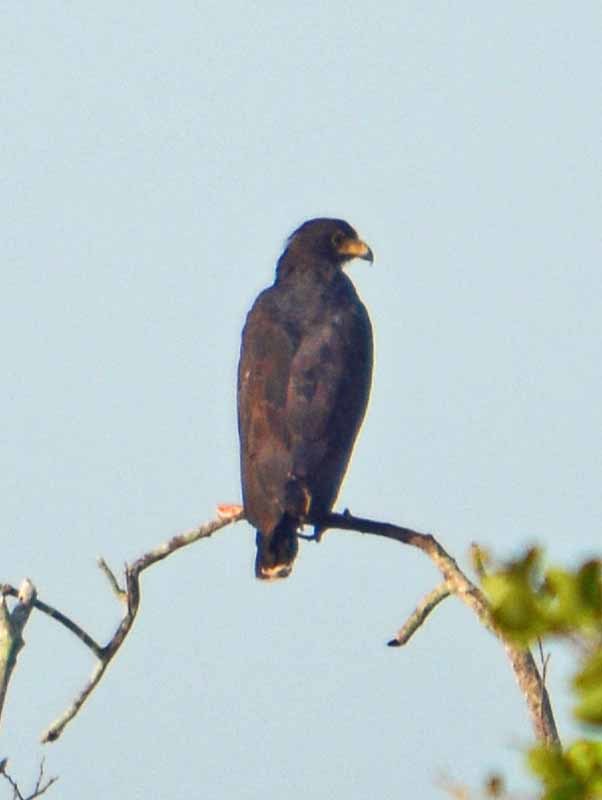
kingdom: Animalia
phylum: Chordata
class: Aves
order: Accipitriformes
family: Accipitridae
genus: Buteogallus
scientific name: Buteogallus anthracinus
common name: Common black hawk
